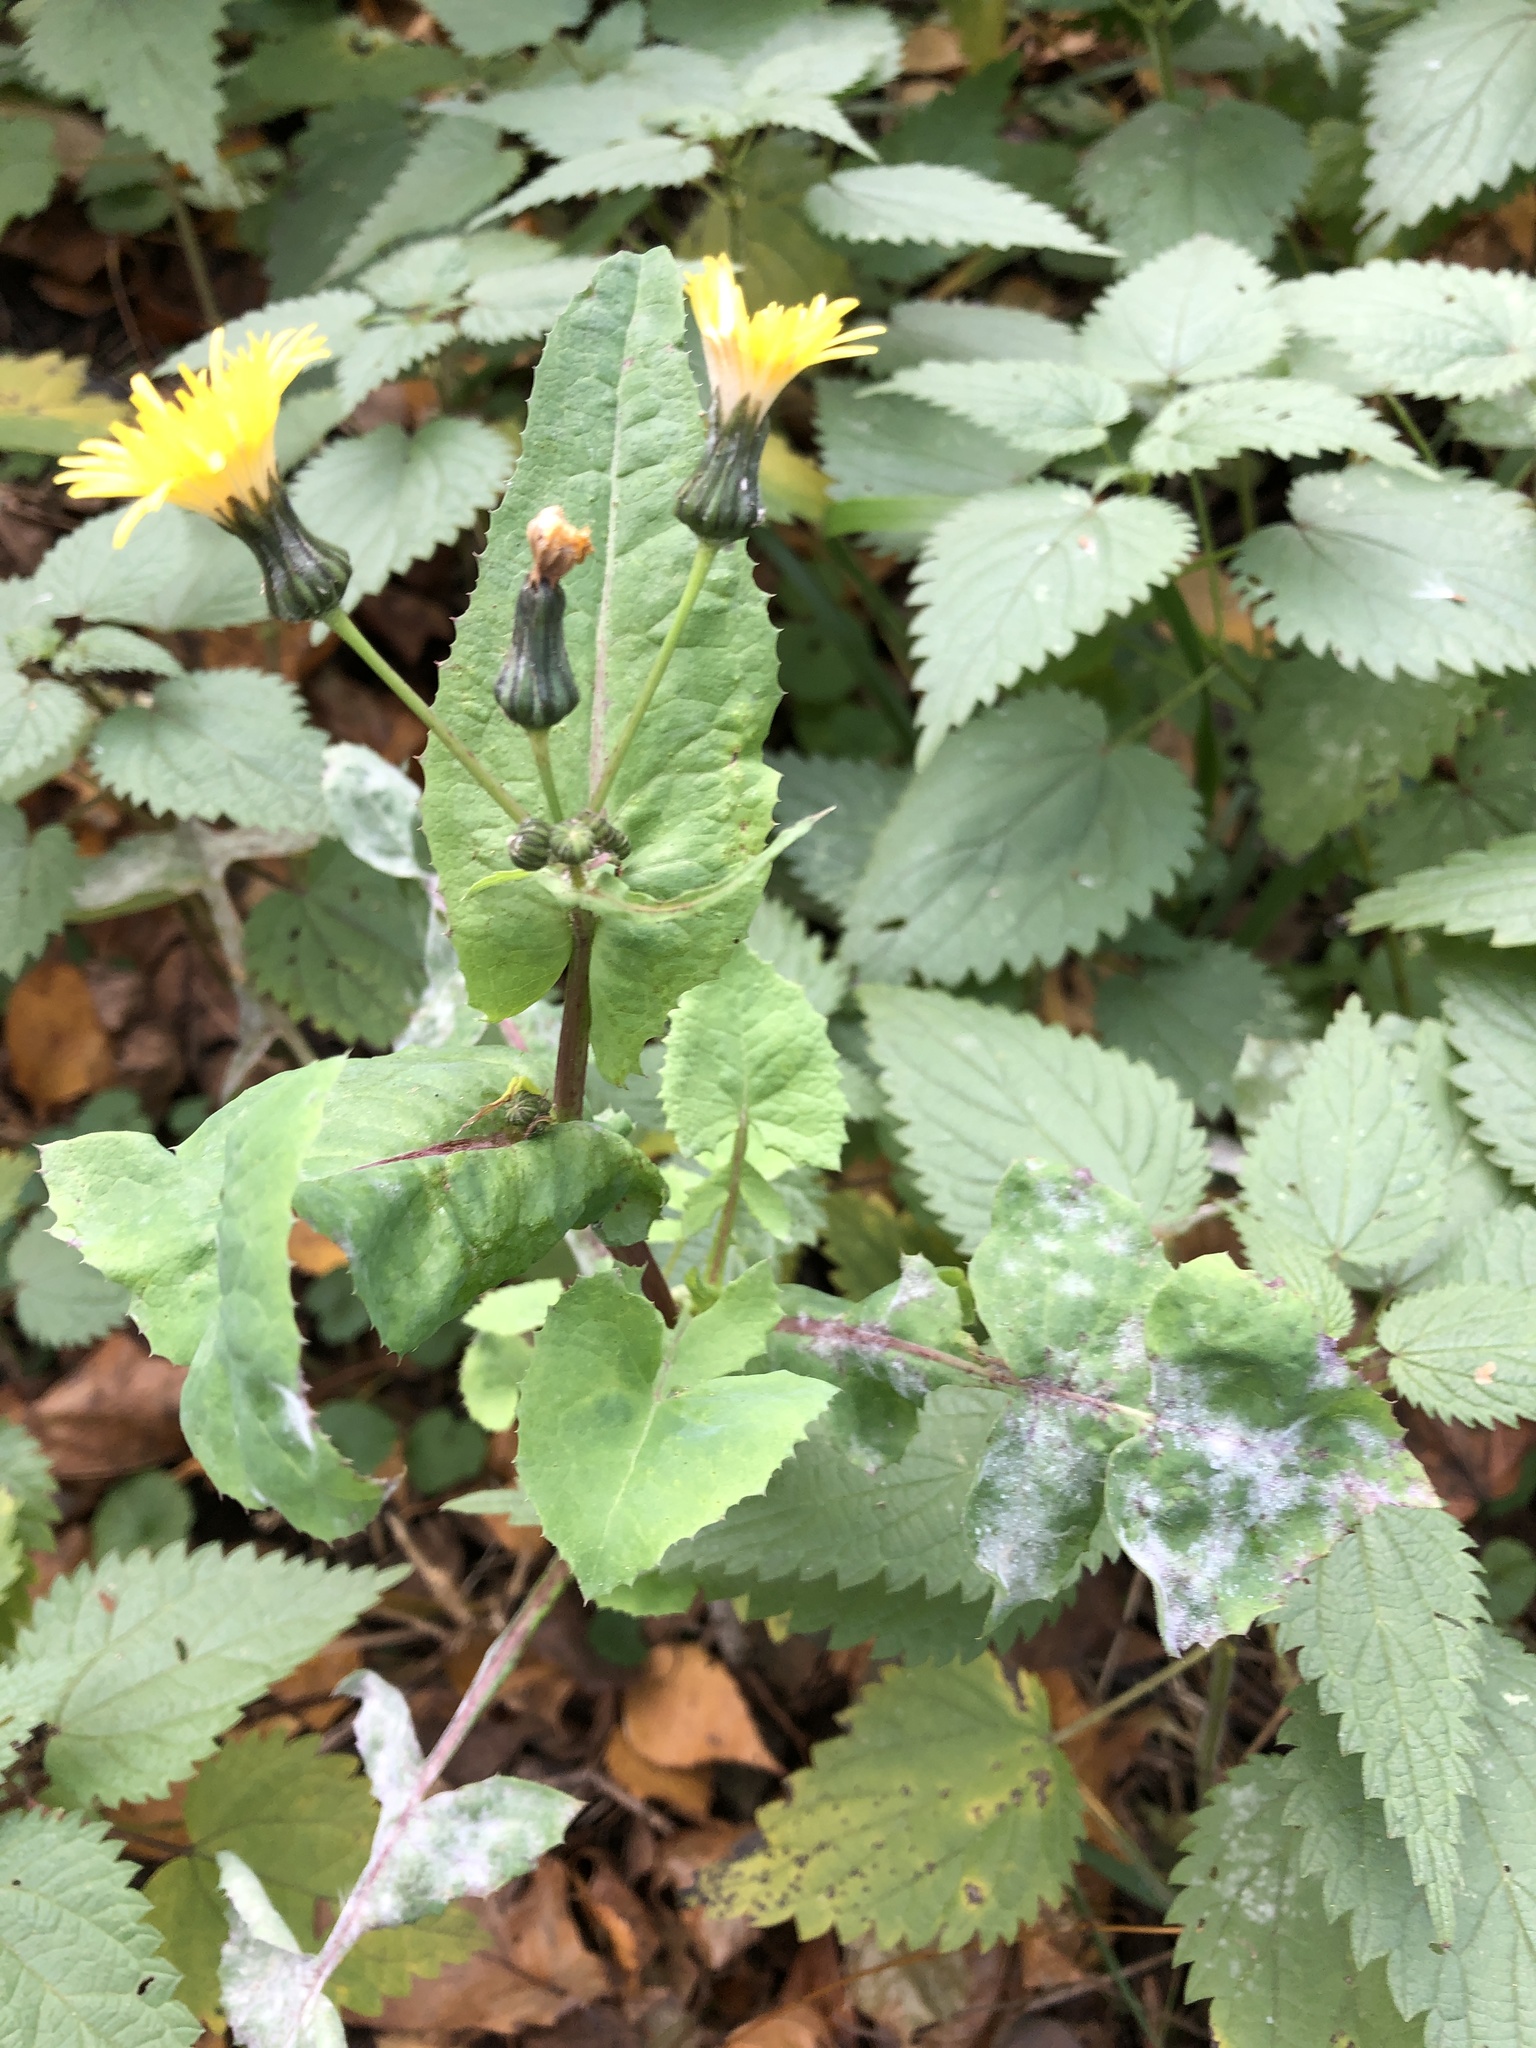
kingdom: Plantae
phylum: Tracheophyta
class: Magnoliopsida
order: Asterales
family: Asteraceae
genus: Sonchus
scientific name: Sonchus oleraceus
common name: Common sowthistle
